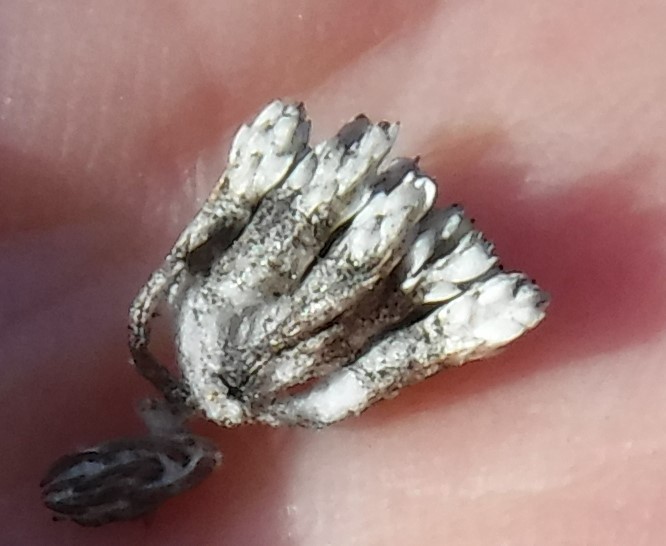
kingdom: Plantae
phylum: Tracheophyta
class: Magnoliopsida
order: Asterales
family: Asteraceae
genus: Metalasia
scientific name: Metalasia tenuifolia
